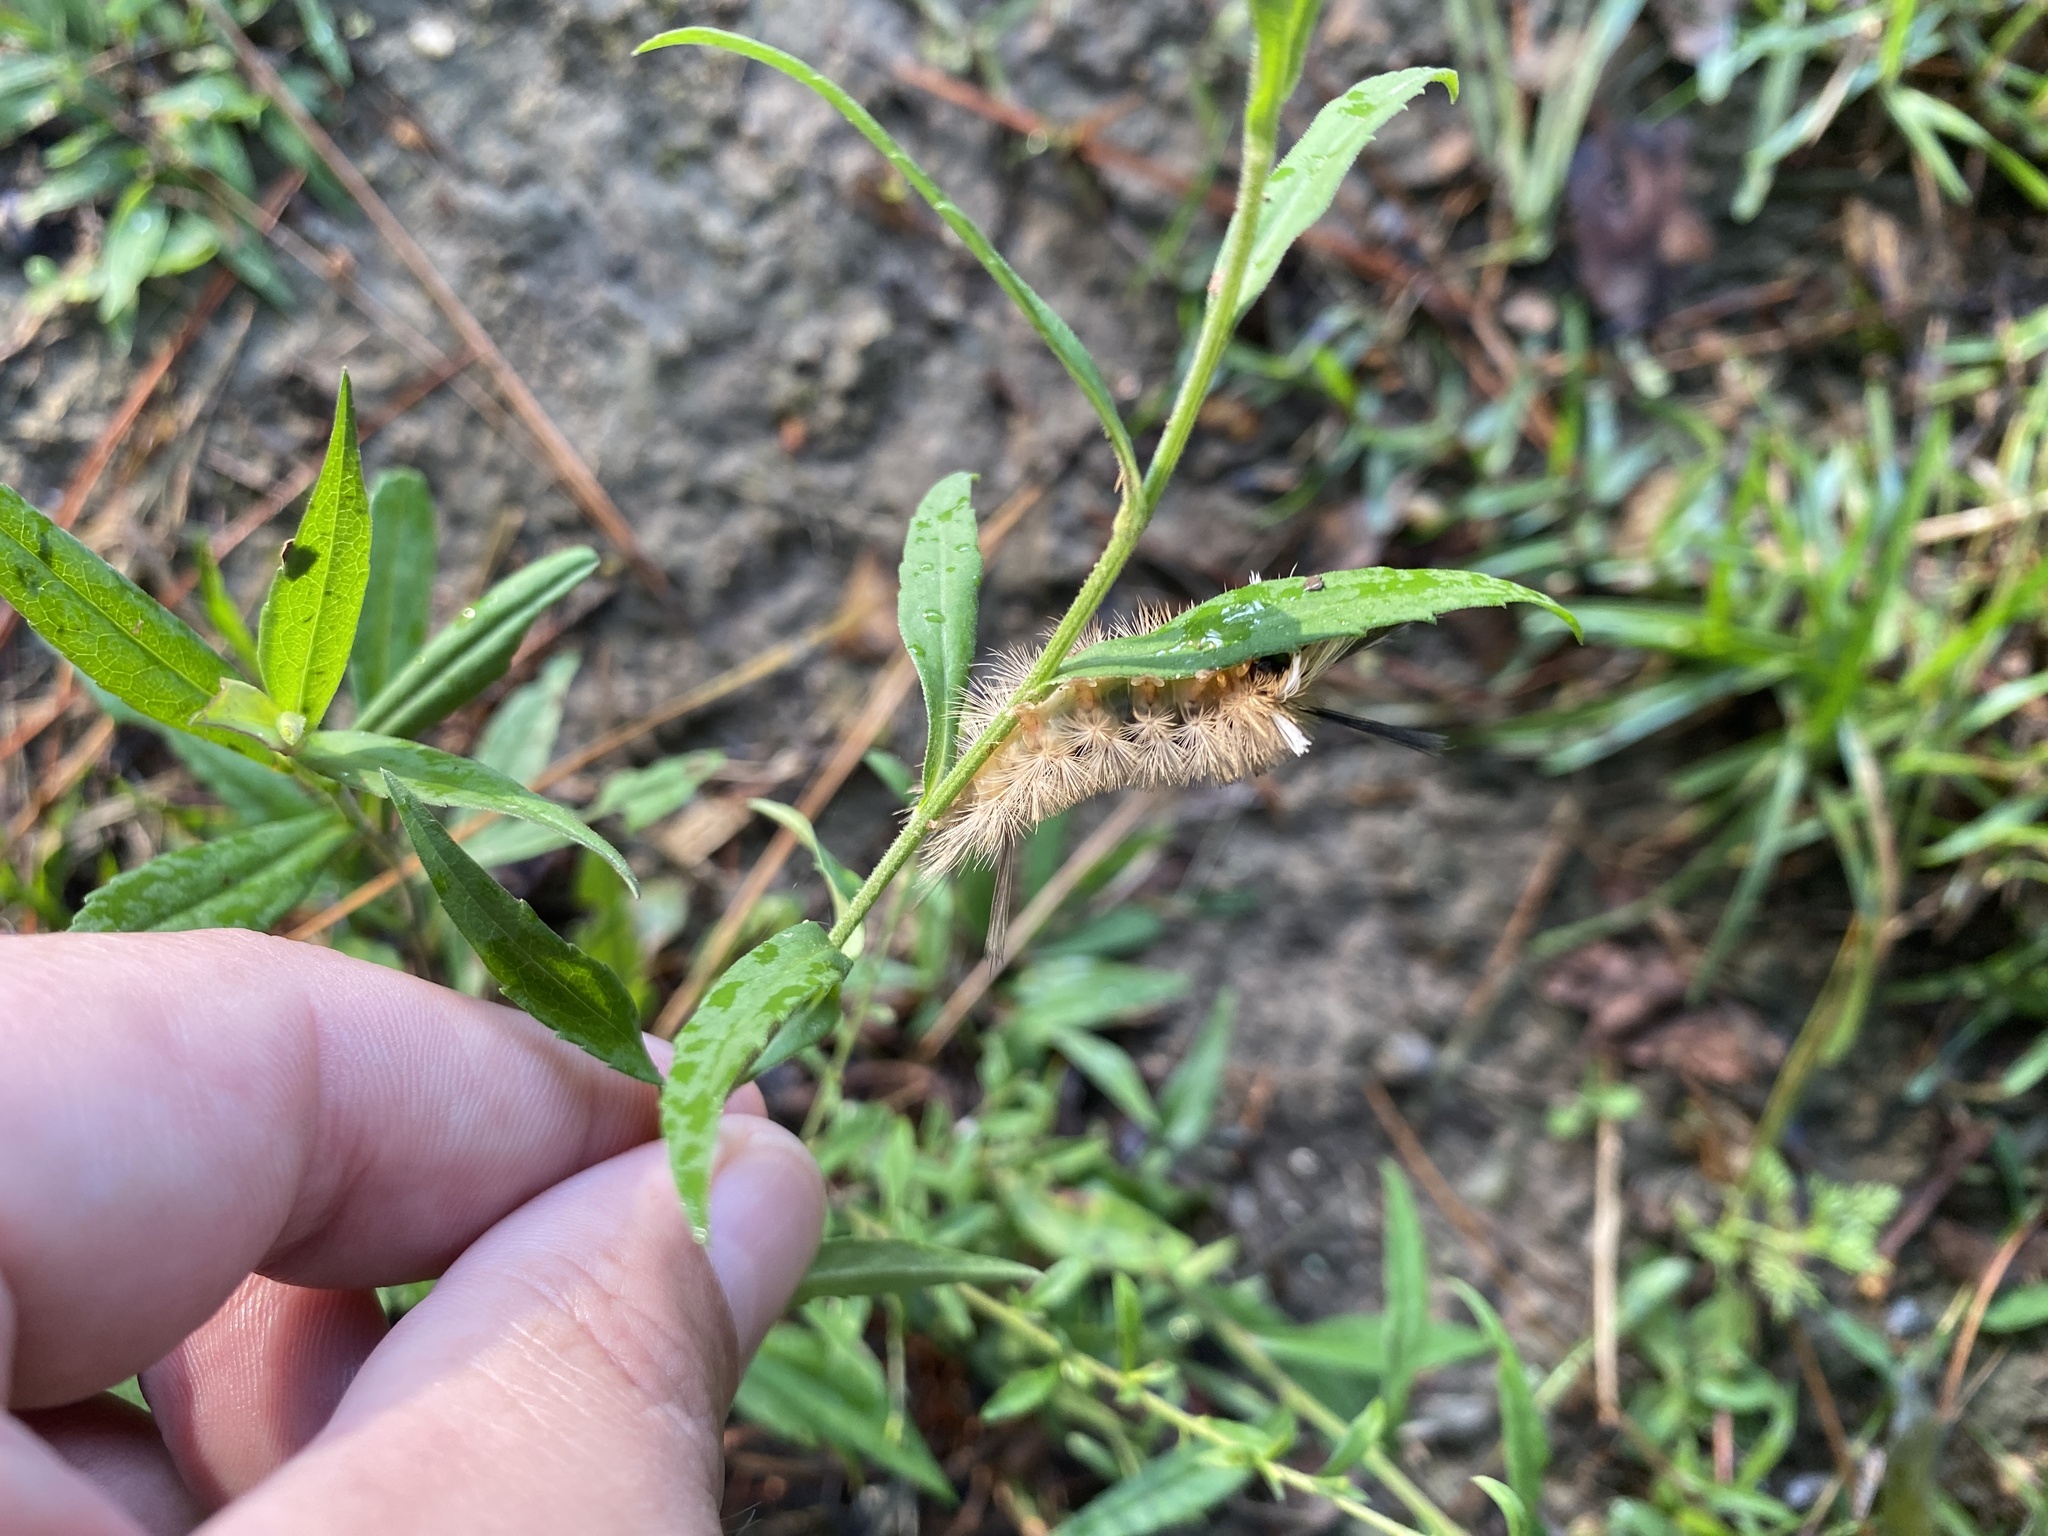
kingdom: Animalia
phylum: Arthropoda
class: Insecta
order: Lepidoptera
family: Erebidae
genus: Halysidota
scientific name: Halysidota tessellaris
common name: Banded tussock moth
